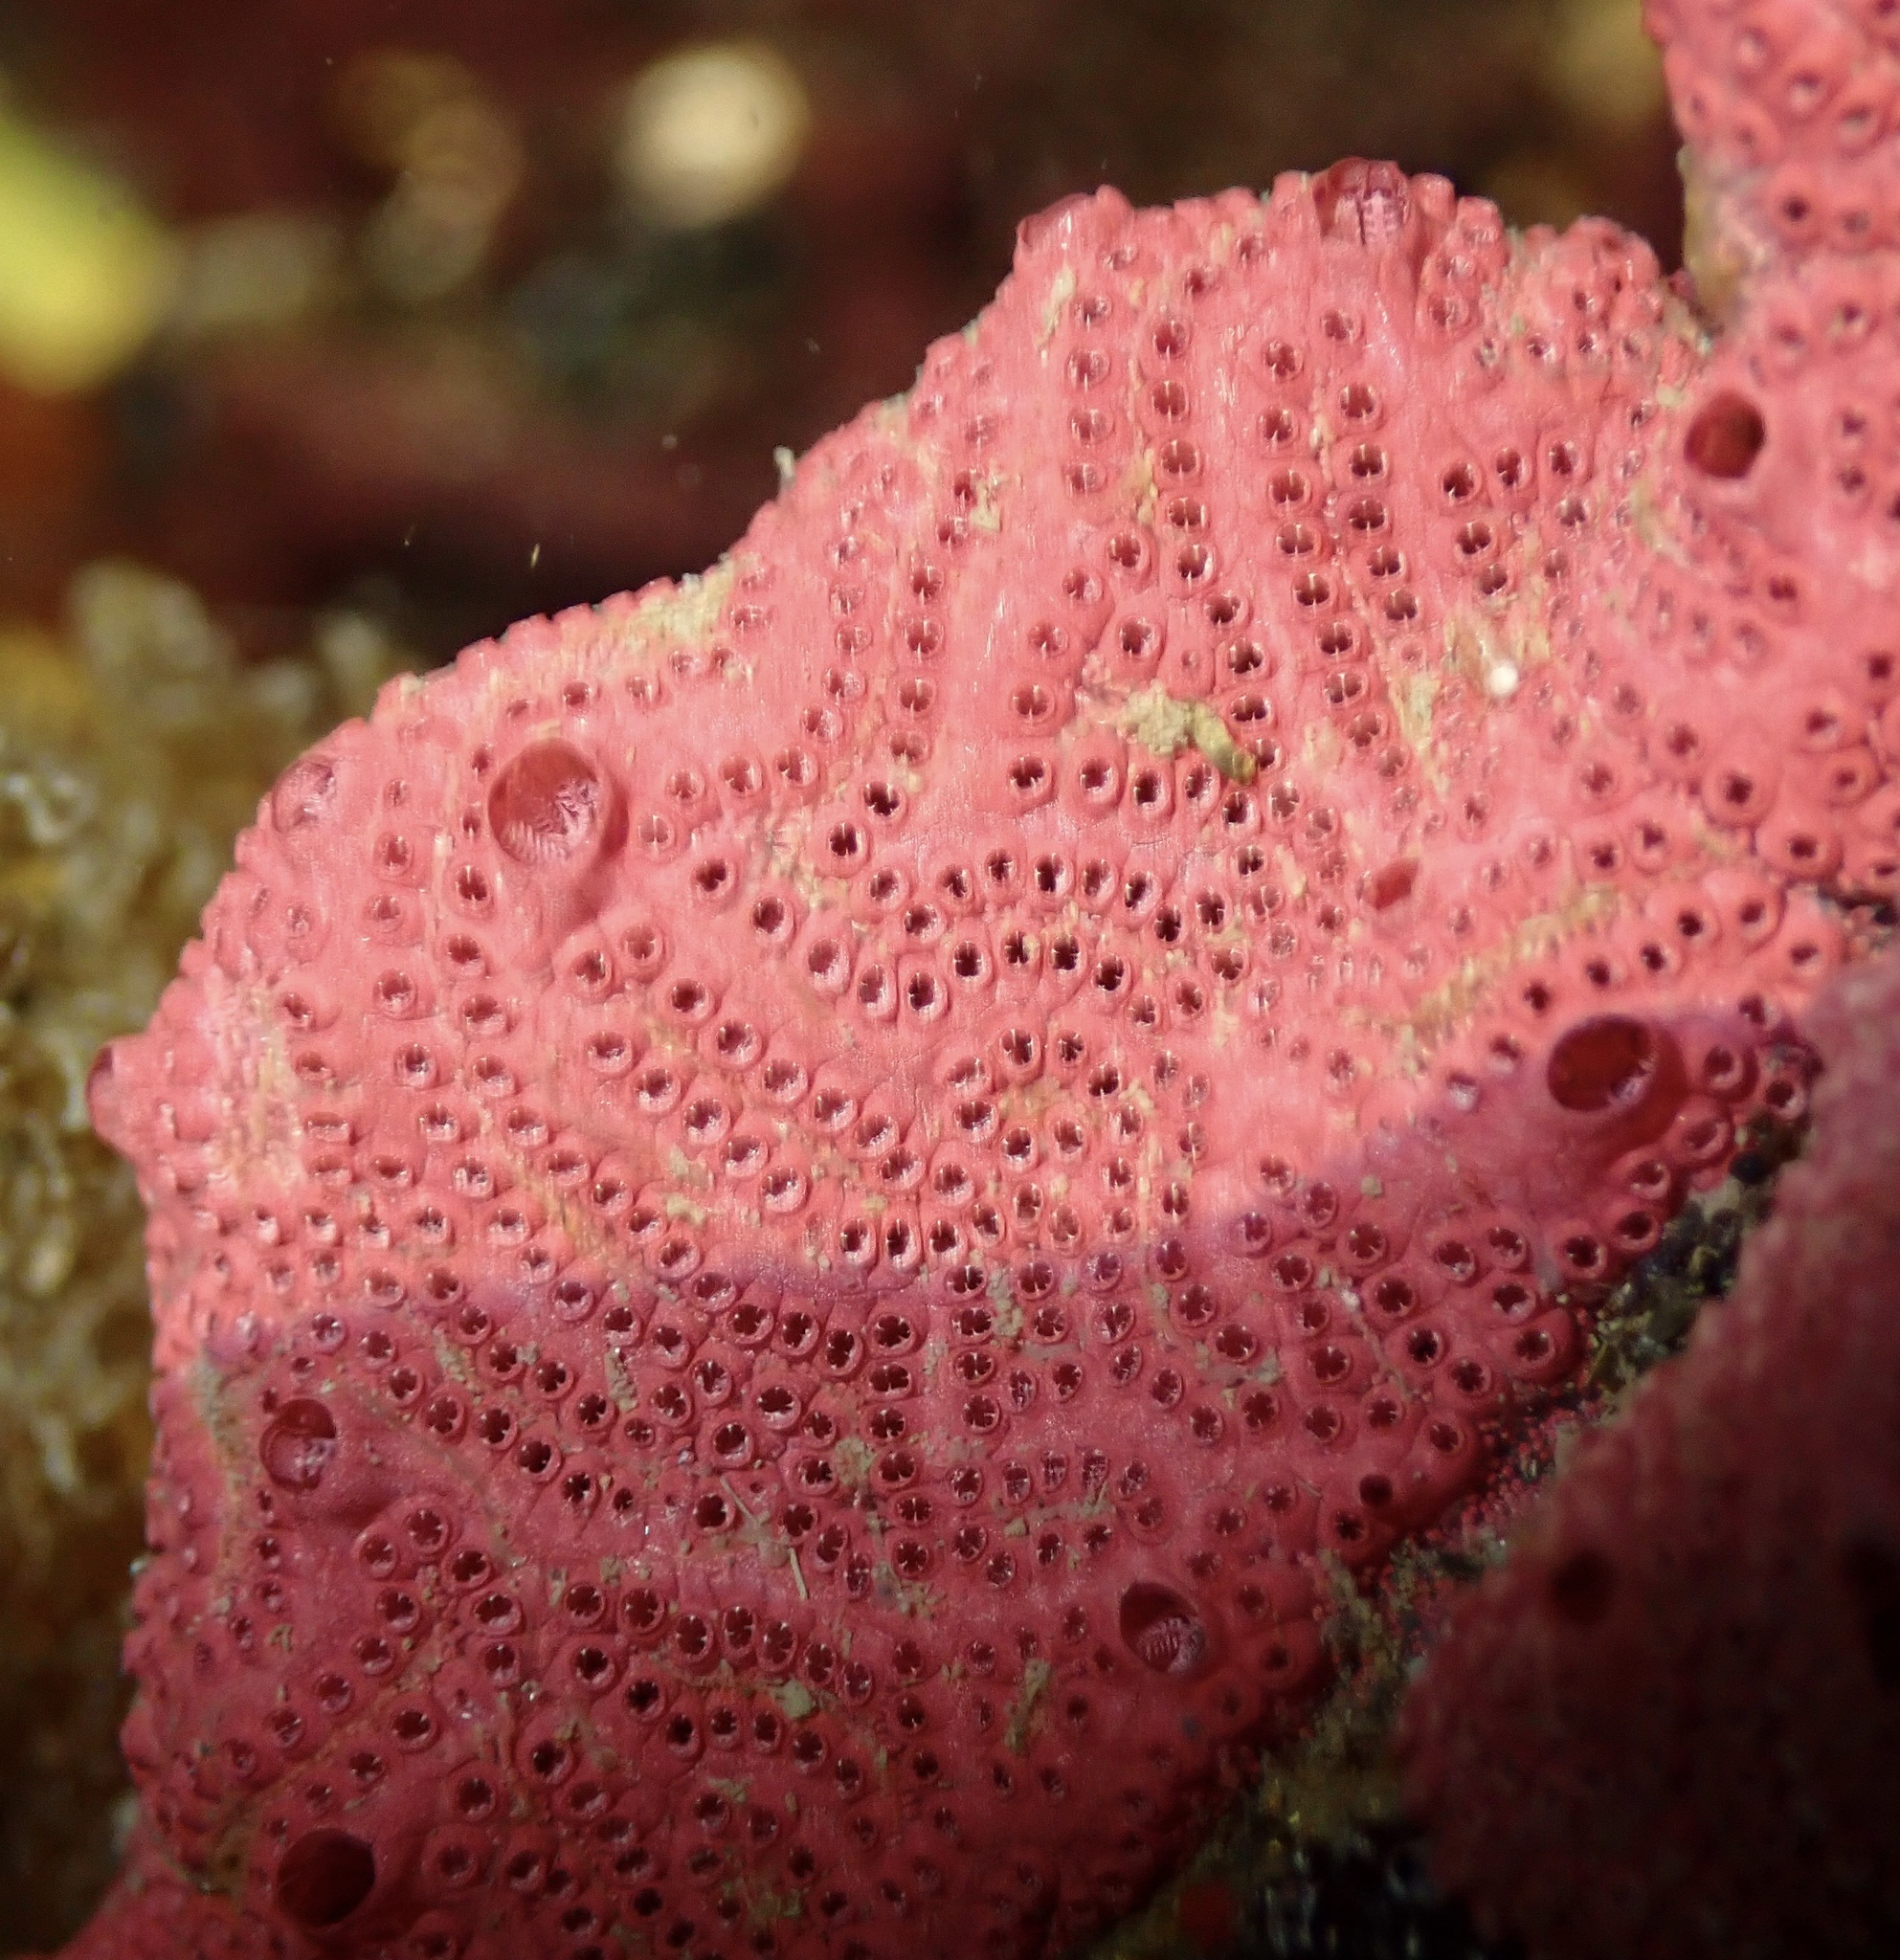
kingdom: Animalia
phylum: Chordata
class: Ascidiacea
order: Stolidobranchia
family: Styelidae
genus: Botrylloides
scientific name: Botrylloides violaceus
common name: Colonial sea squirt
